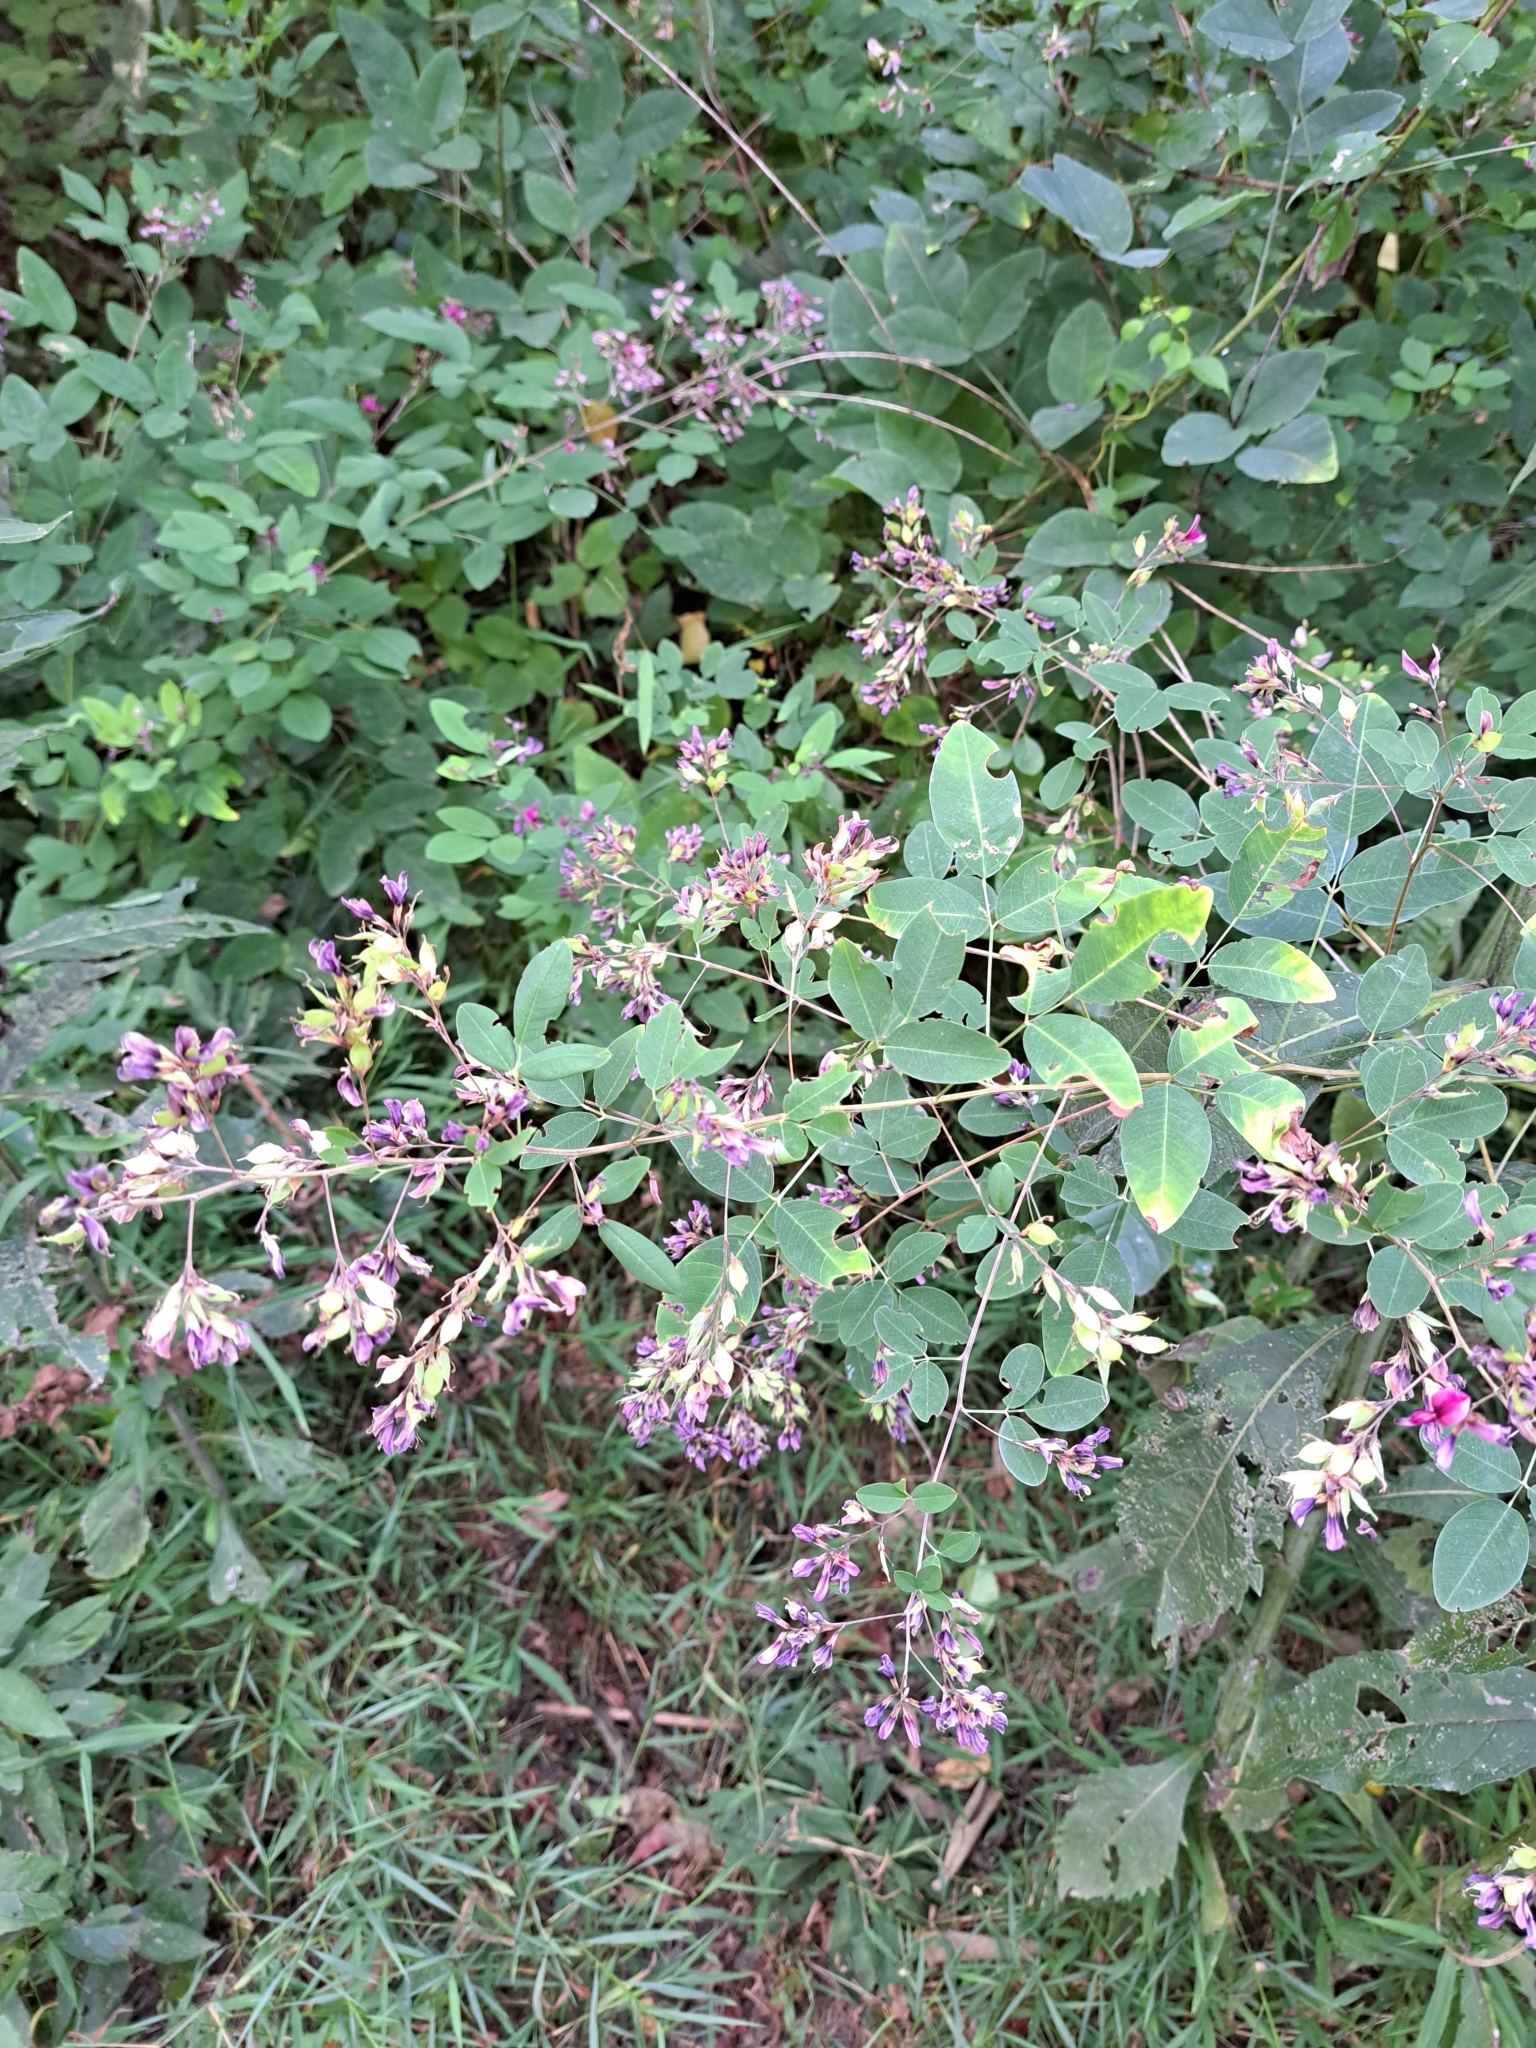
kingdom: Plantae
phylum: Tracheophyta
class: Magnoliopsida
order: Fabales
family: Fabaceae
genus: Lespedeza
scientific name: Lespedeza bicolor
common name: Shrub lespedeza
